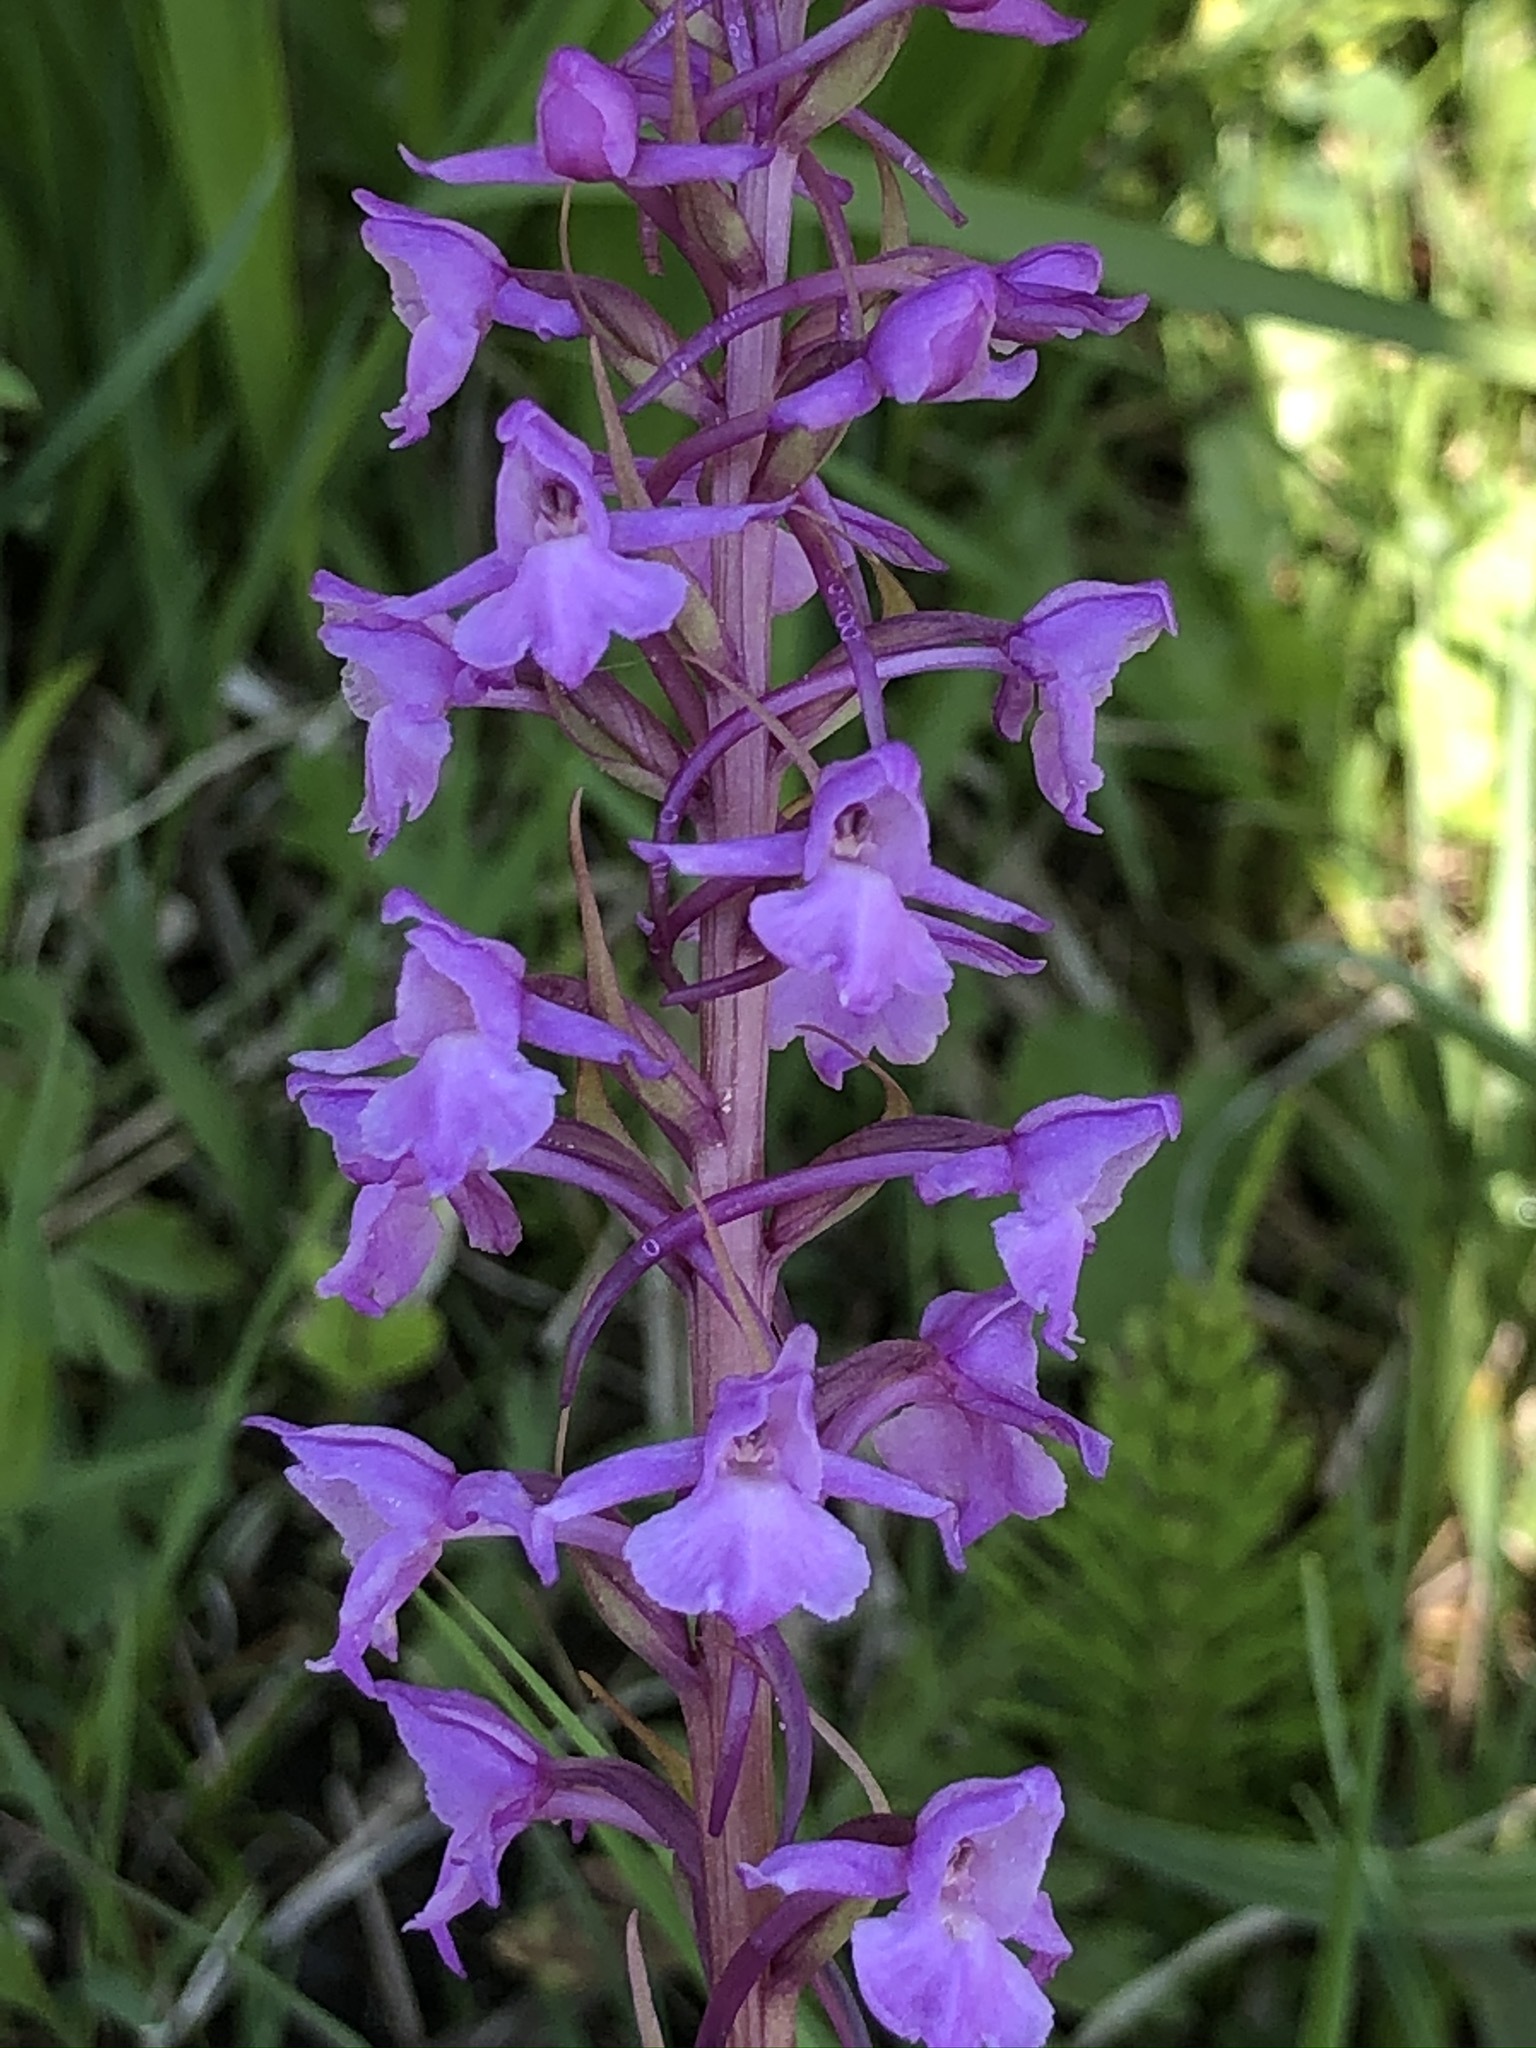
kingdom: Plantae
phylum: Tracheophyta
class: Liliopsida
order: Asparagales
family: Orchidaceae
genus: Gymnadenia
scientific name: Gymnadenia conopsea
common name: Fragrant orchid
